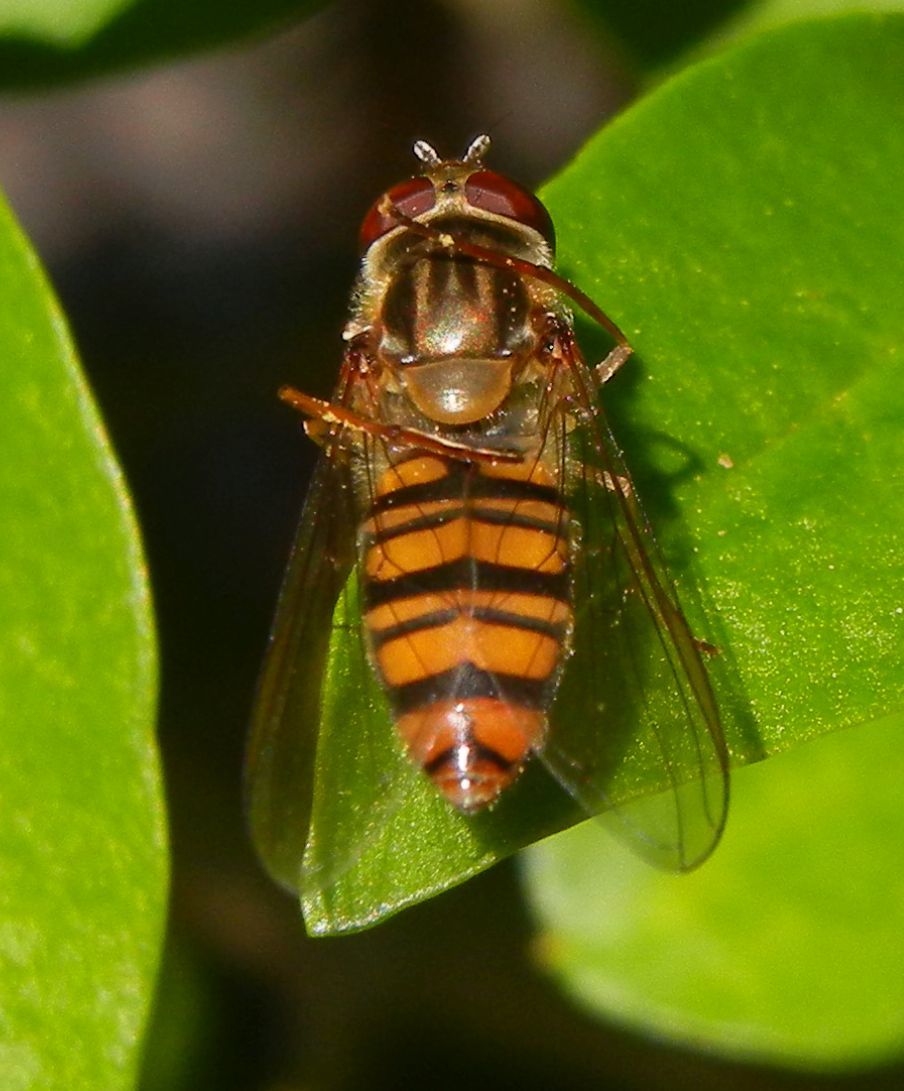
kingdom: Animalia
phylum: Arthropoda
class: Insecta
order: Diptera
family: Syrphidae
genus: Episyrphus
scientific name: Episyrphus balteatus
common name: Marmalade hoverfly
